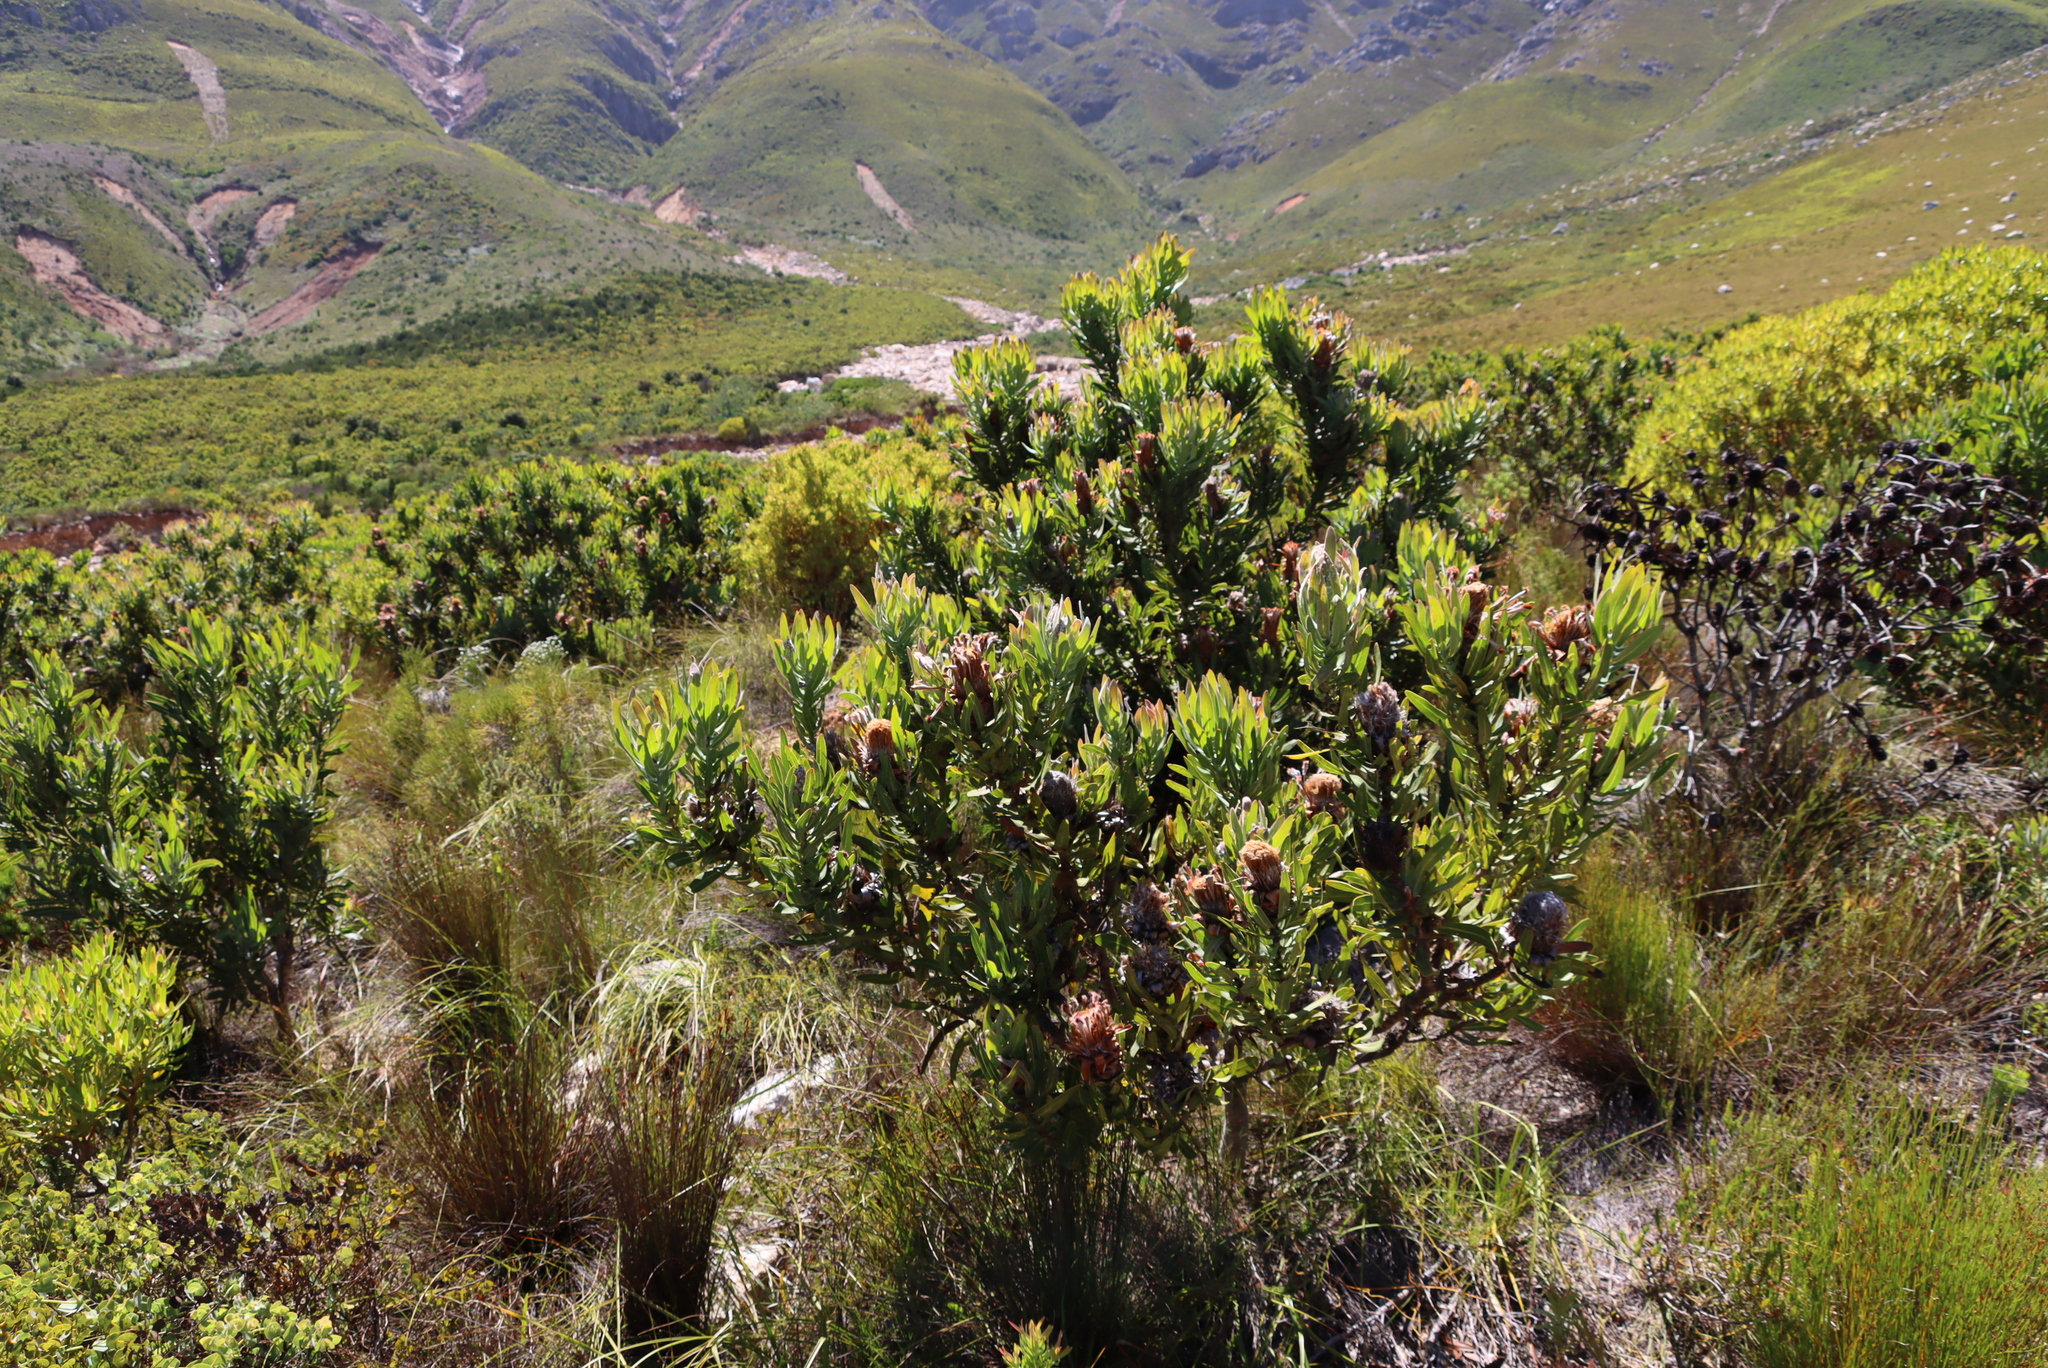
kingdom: Plantae
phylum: Tracheophyta
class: Magnoliopsida
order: Proteales
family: Proteaceae
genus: Protea
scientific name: Protea laurifolia
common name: Grey-leaf sugarbsh
